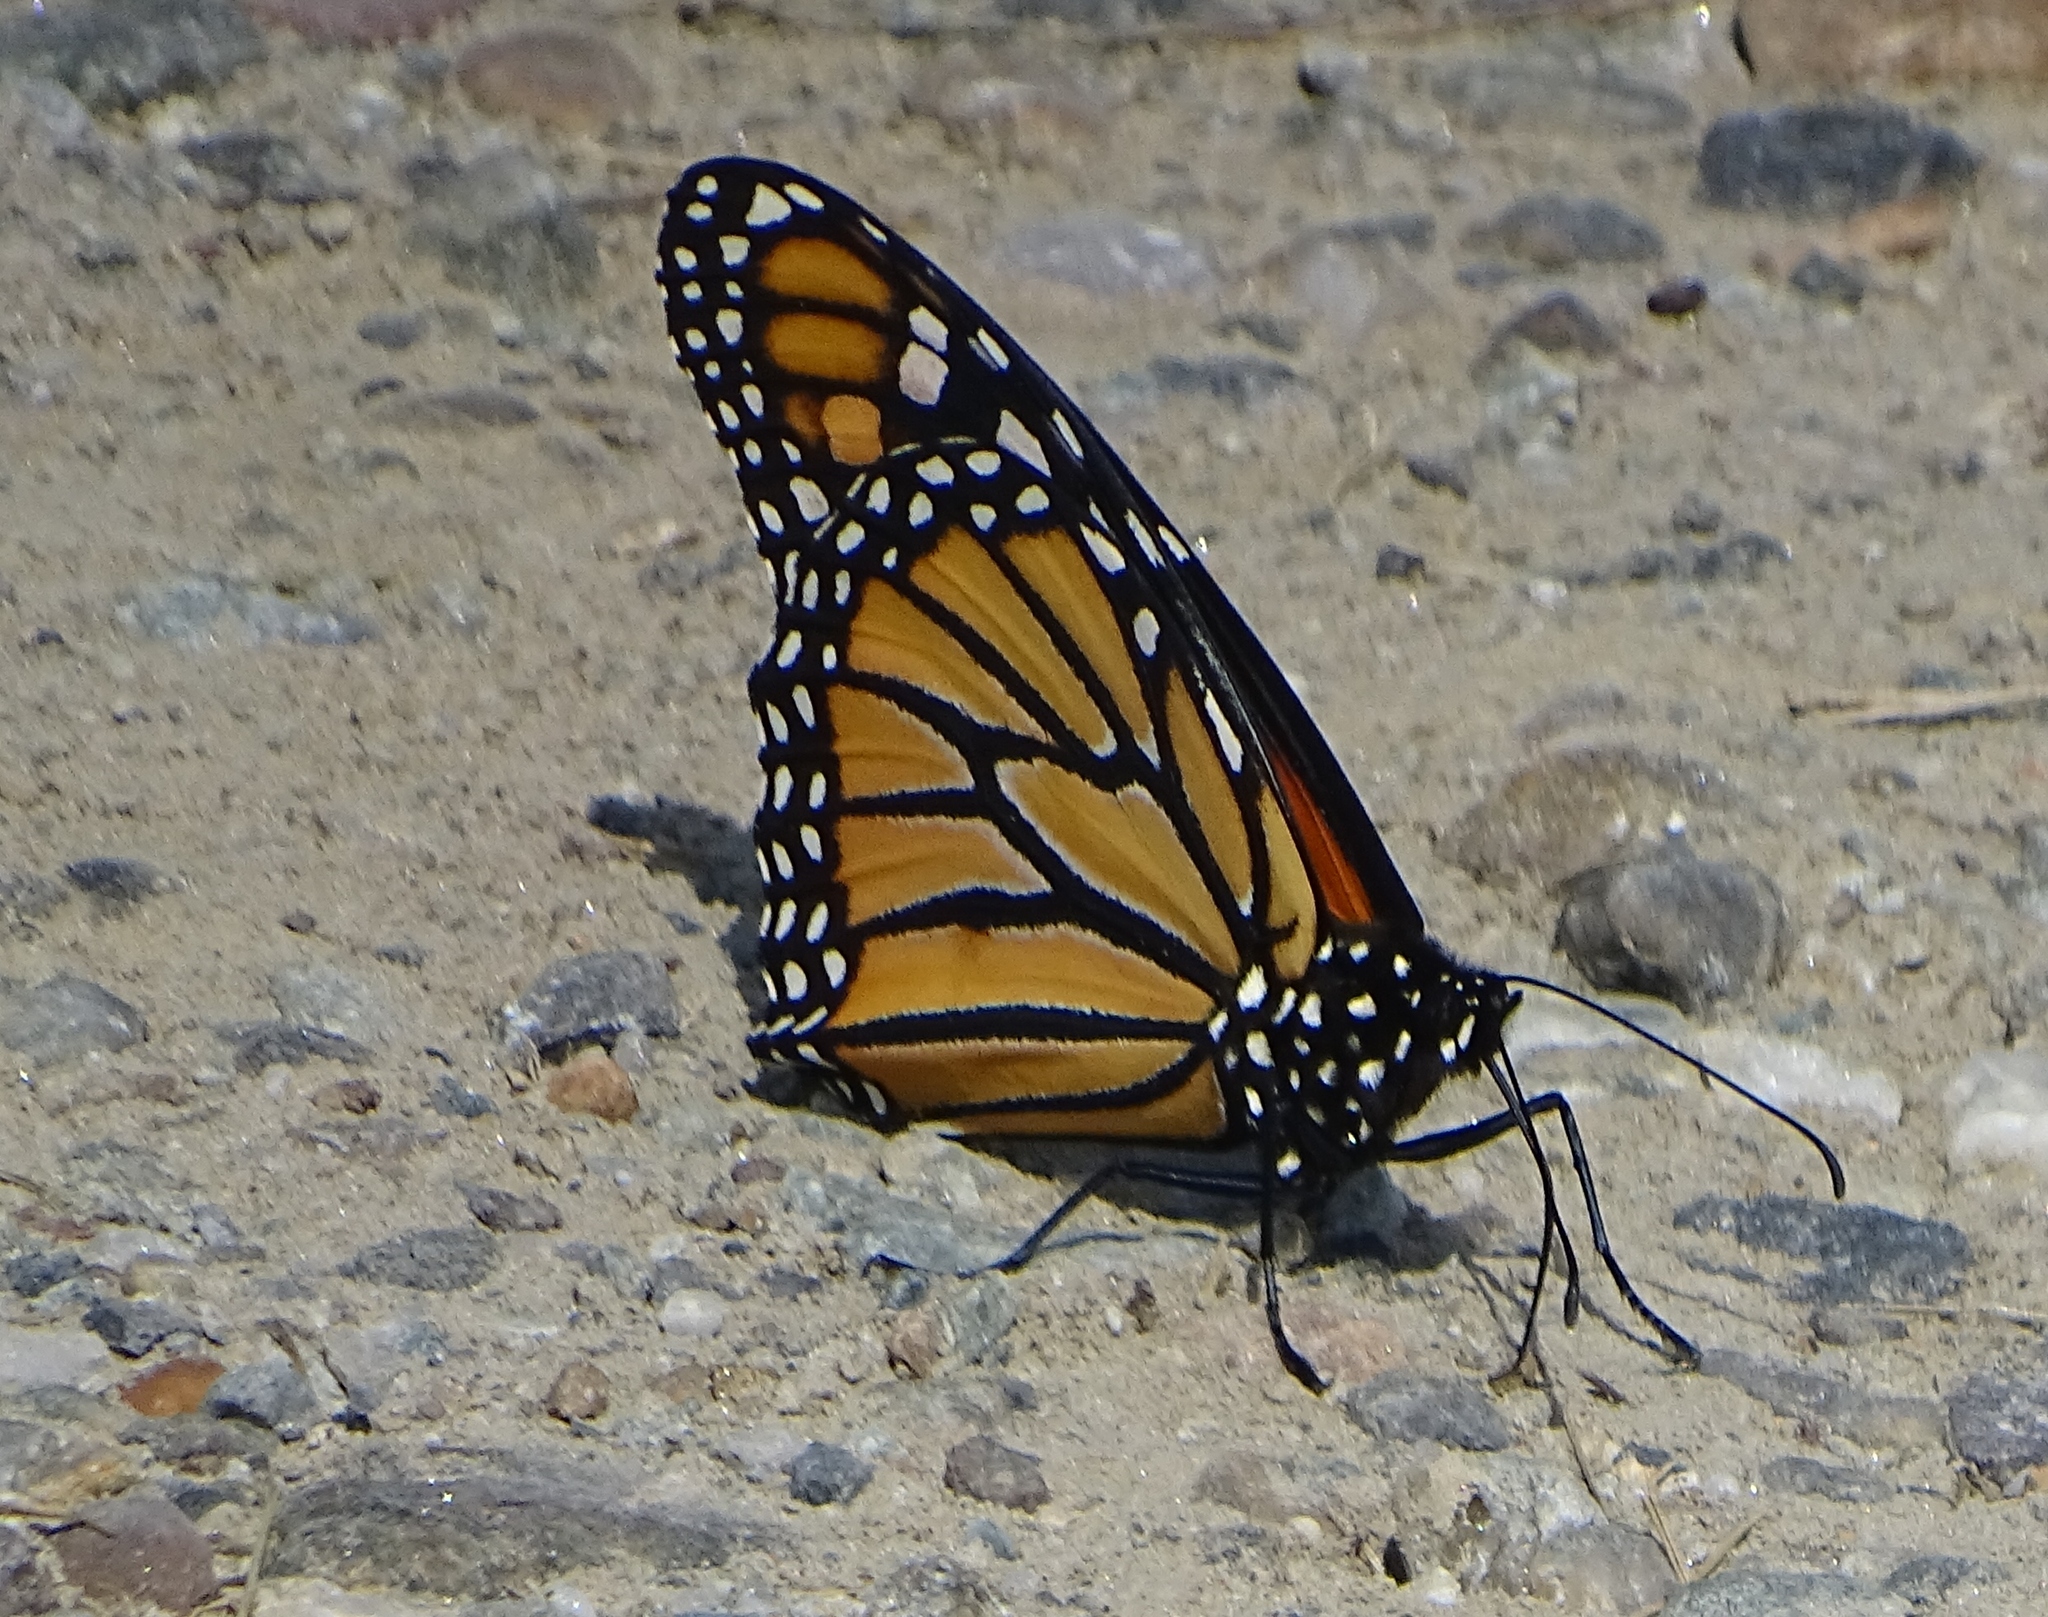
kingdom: Animalia
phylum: Arthropoda
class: Insecta
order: Lepidoptera
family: Nymphalidae
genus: Danaus
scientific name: Danaus plexippus
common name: Monarch
